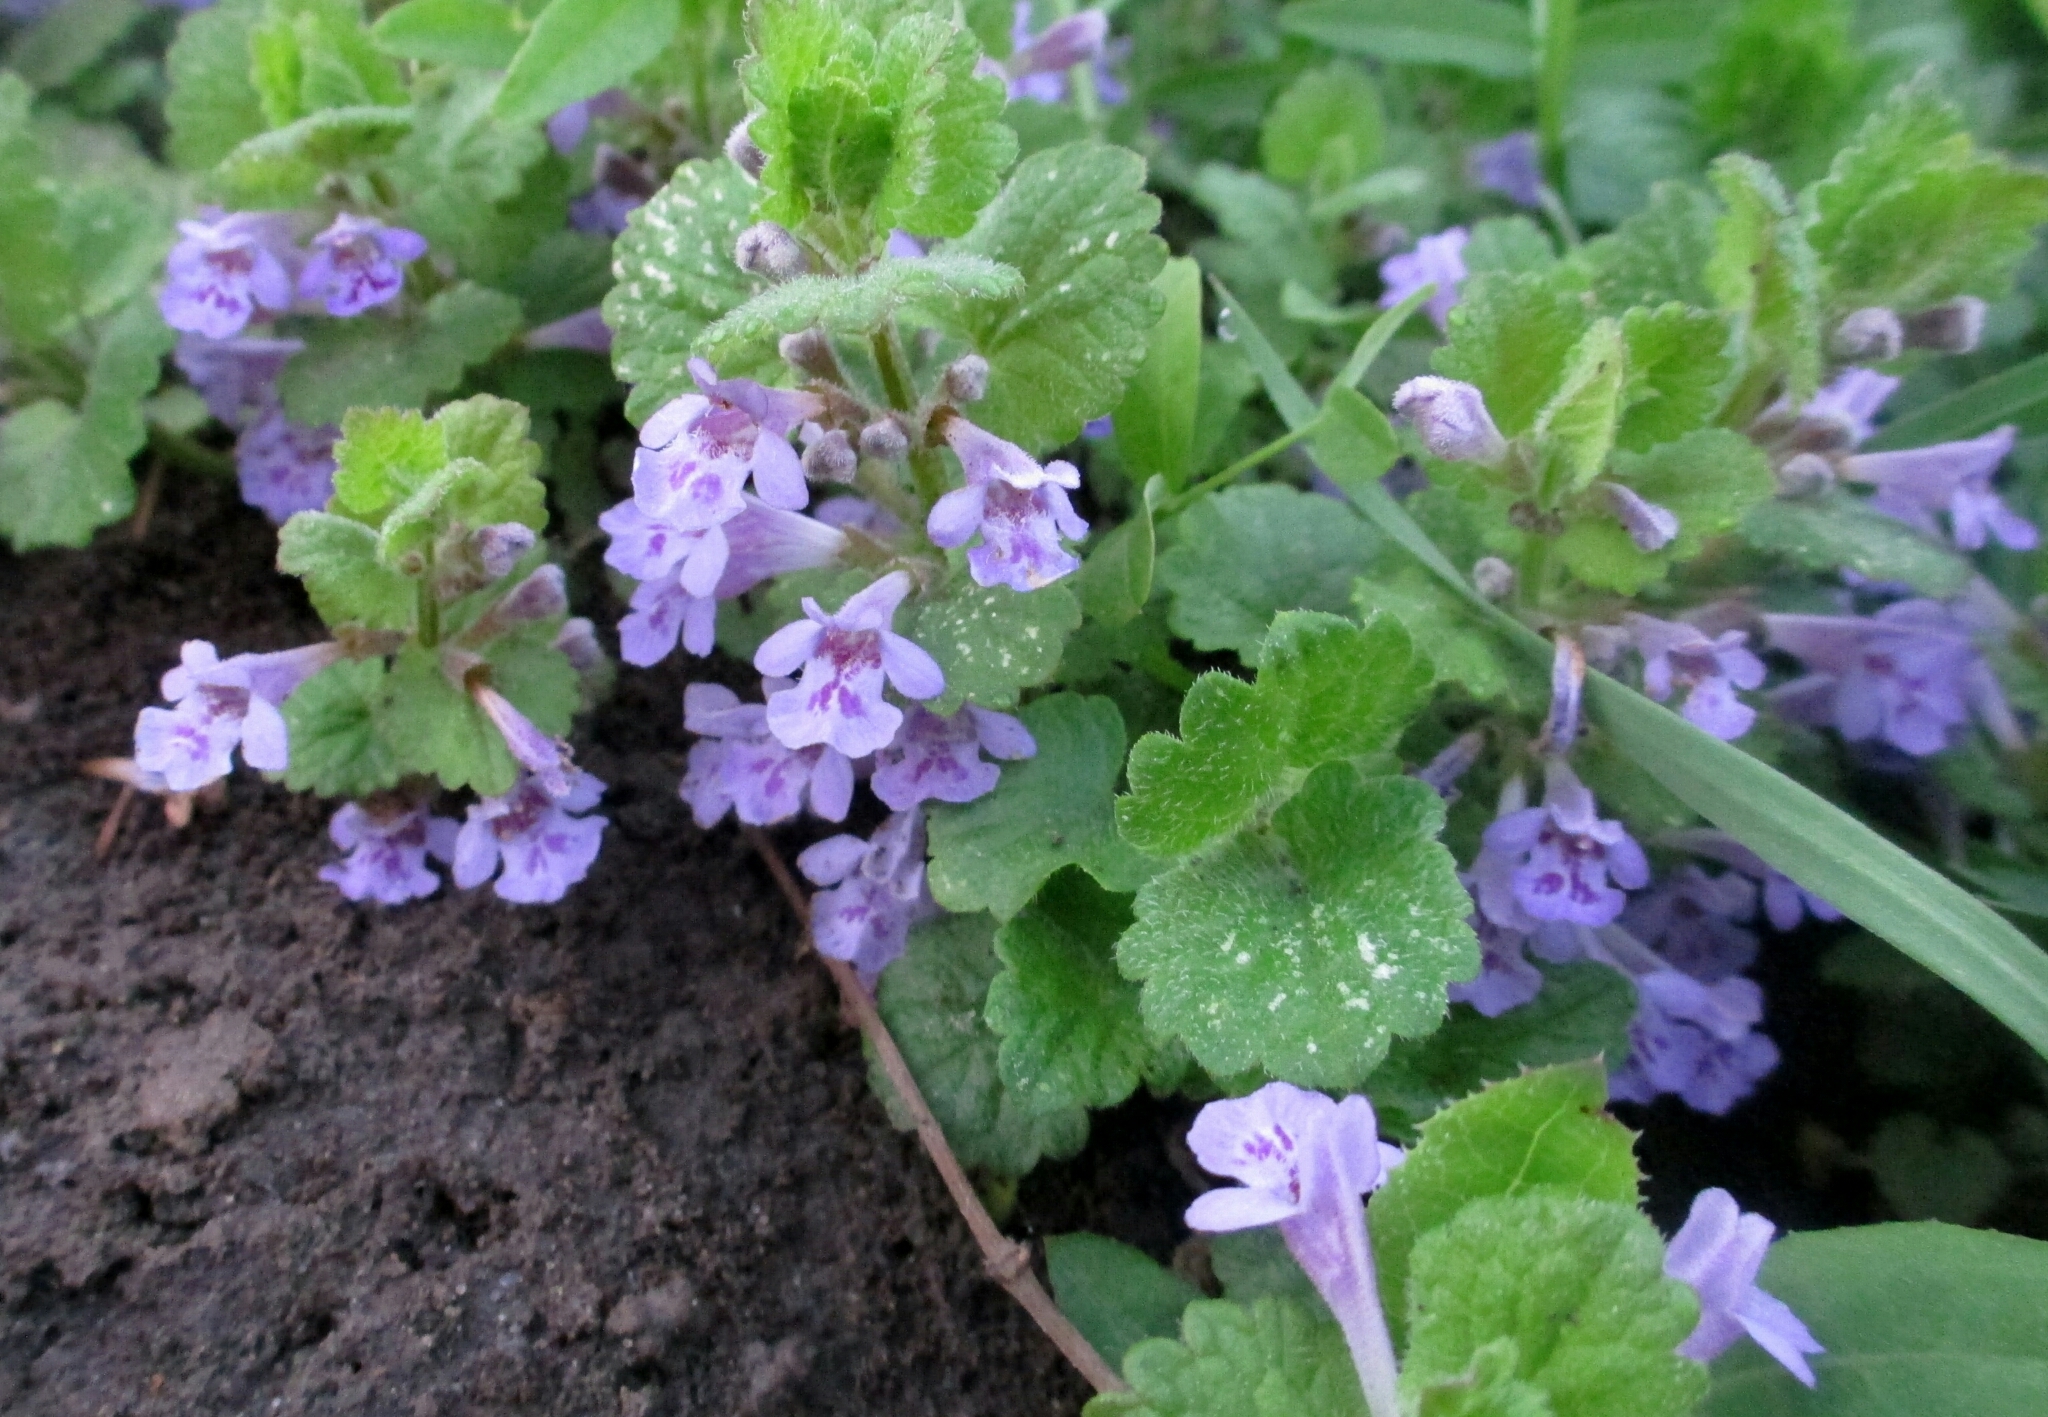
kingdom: Plantae
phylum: Tracheophyta
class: Magnoliopsida
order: Lamiales
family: Lamiaceae
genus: Glechoma
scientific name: Glechoma hederacea
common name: Ground ivy
